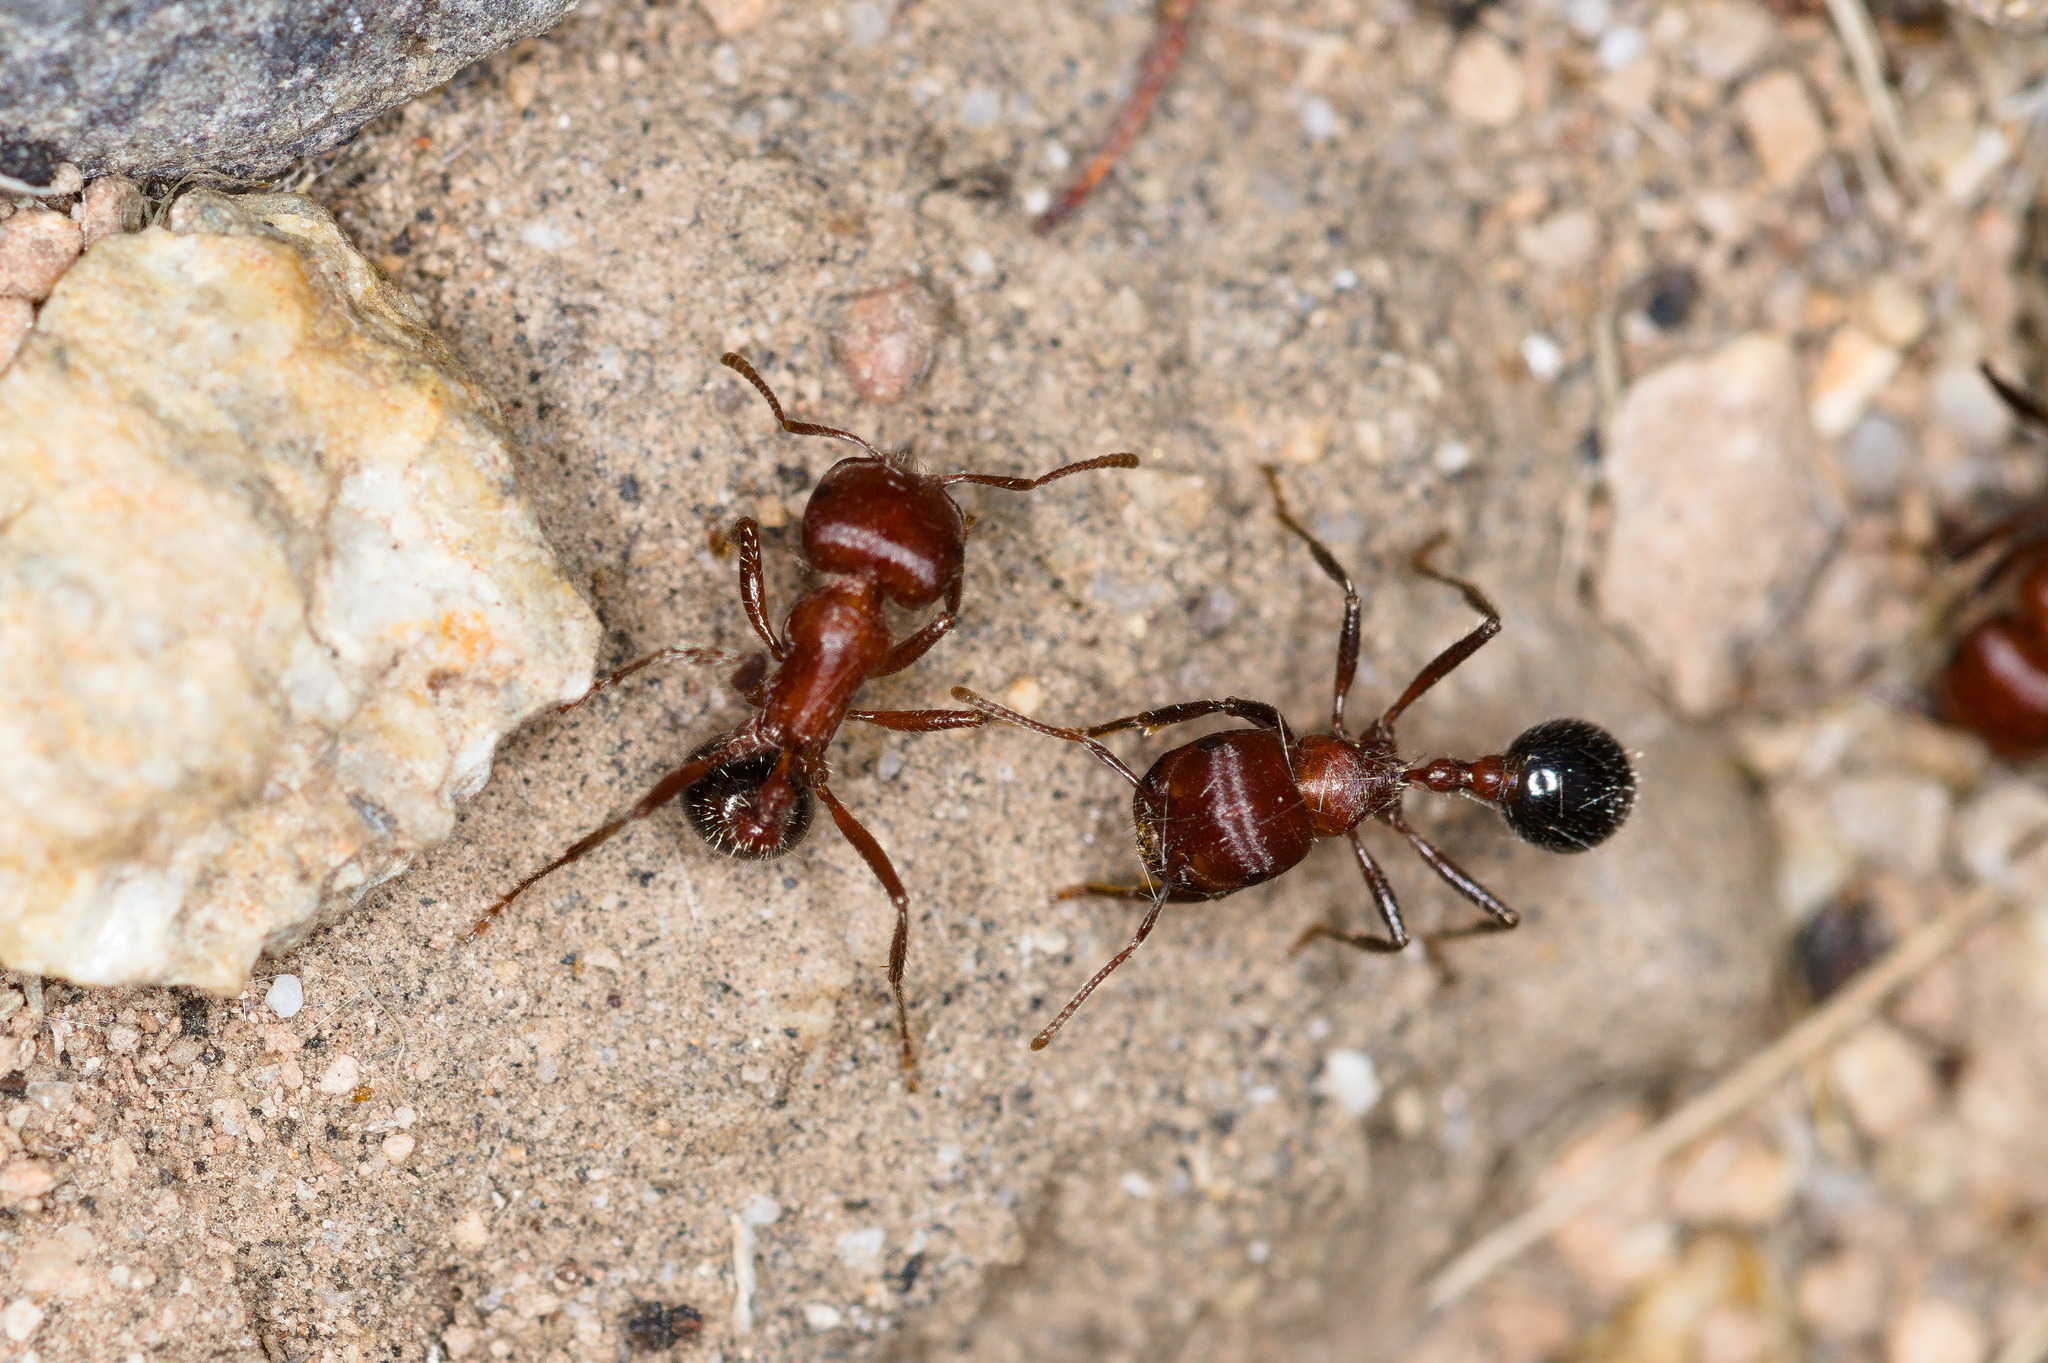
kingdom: Animalia
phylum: Arthropoda
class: Insecta
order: Hymenoptera
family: Formicidae
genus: Pogonomyrmex
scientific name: Pogonomyrmex bicolor
